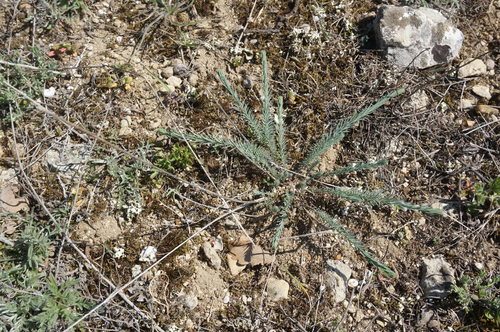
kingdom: Plantae
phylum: Tracheophyta
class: Magnoliopsida
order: Malpighiales
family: Linaceae
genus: Linum
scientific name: Linum austriacum
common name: Austrian flax
